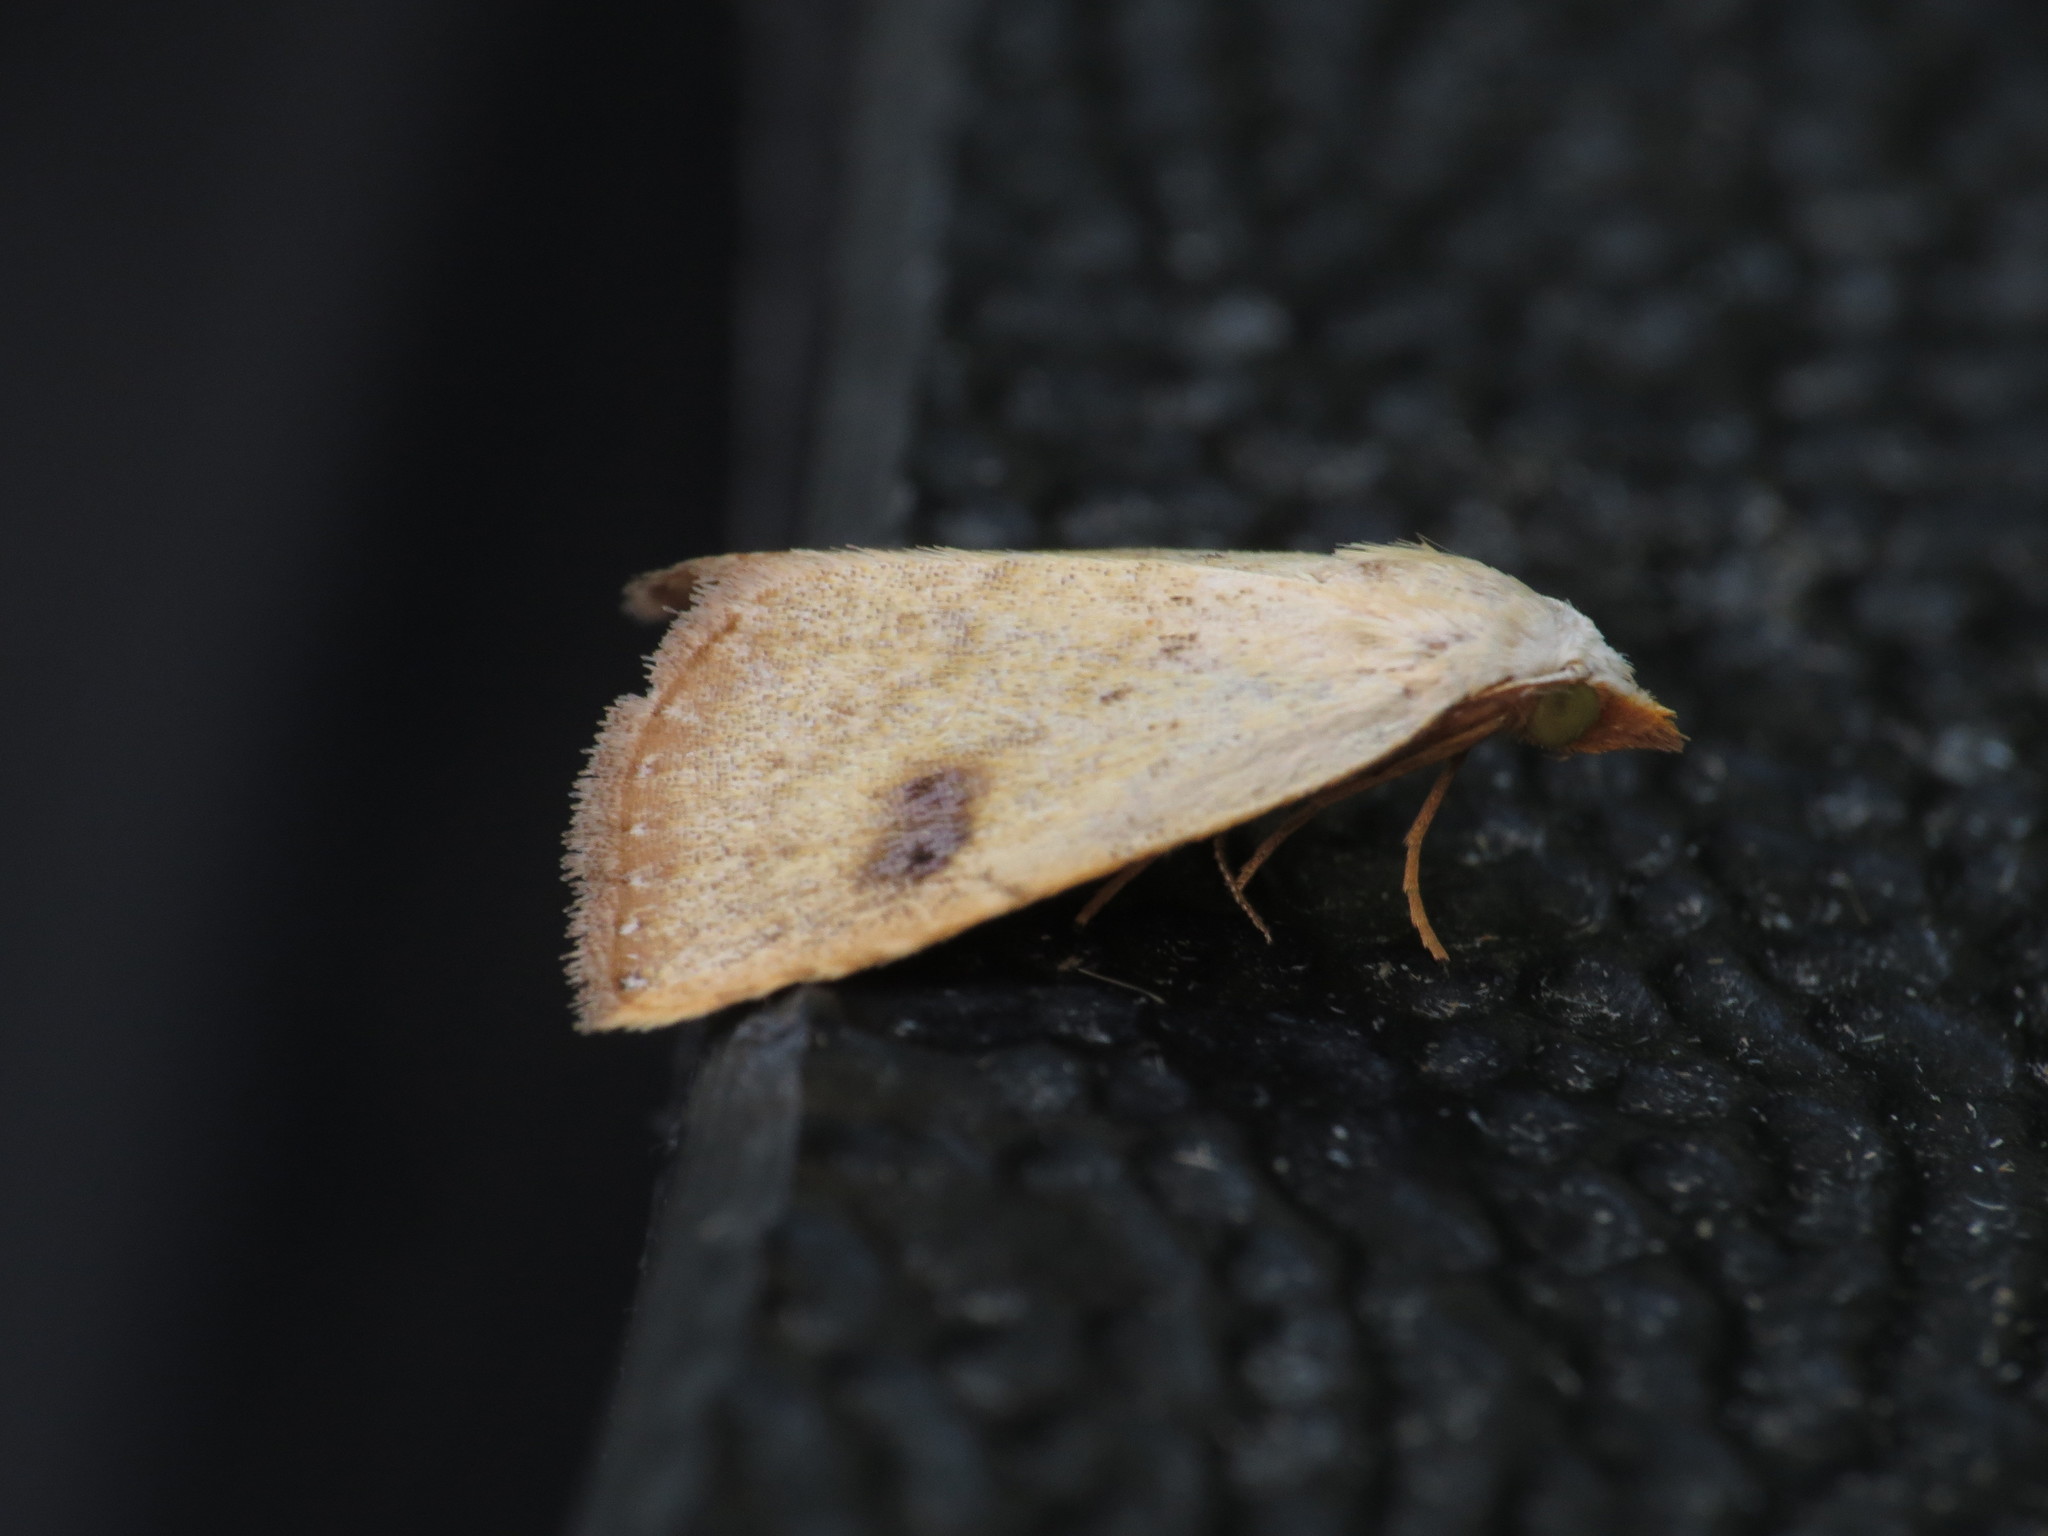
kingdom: Animalia
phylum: Arthropoda
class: Insecta
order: Lepidoptera
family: Erebidae
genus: Rivula
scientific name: Rivula sericealis
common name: Straw dot
